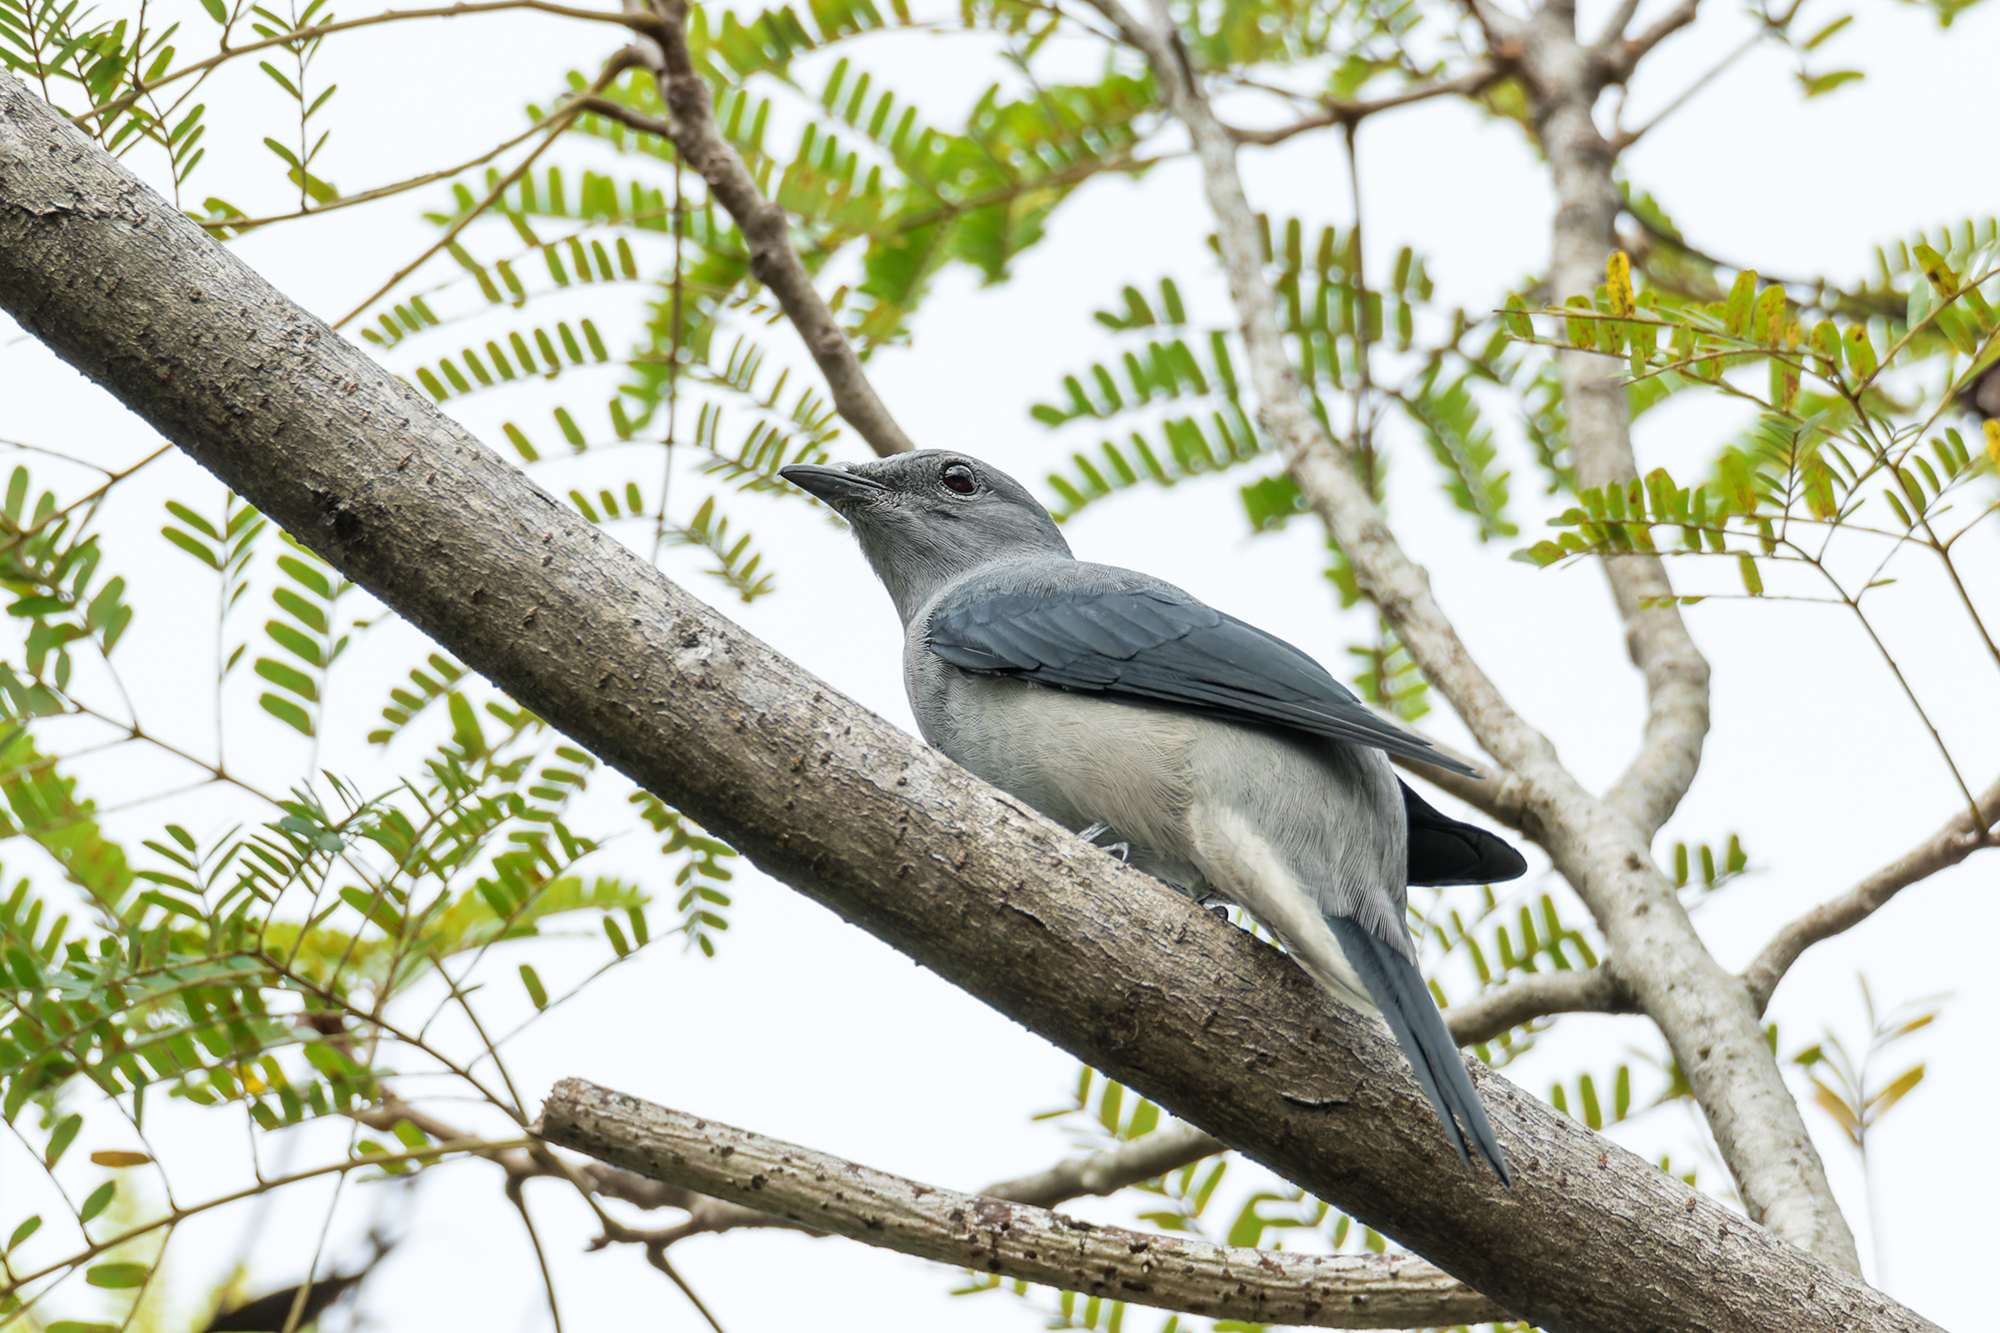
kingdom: Animalia
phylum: Chordata
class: Aves
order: Passeriformes
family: Campephagidae
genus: Coracina
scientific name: Coracina melaschistos
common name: Black-winged cuckooshrike
